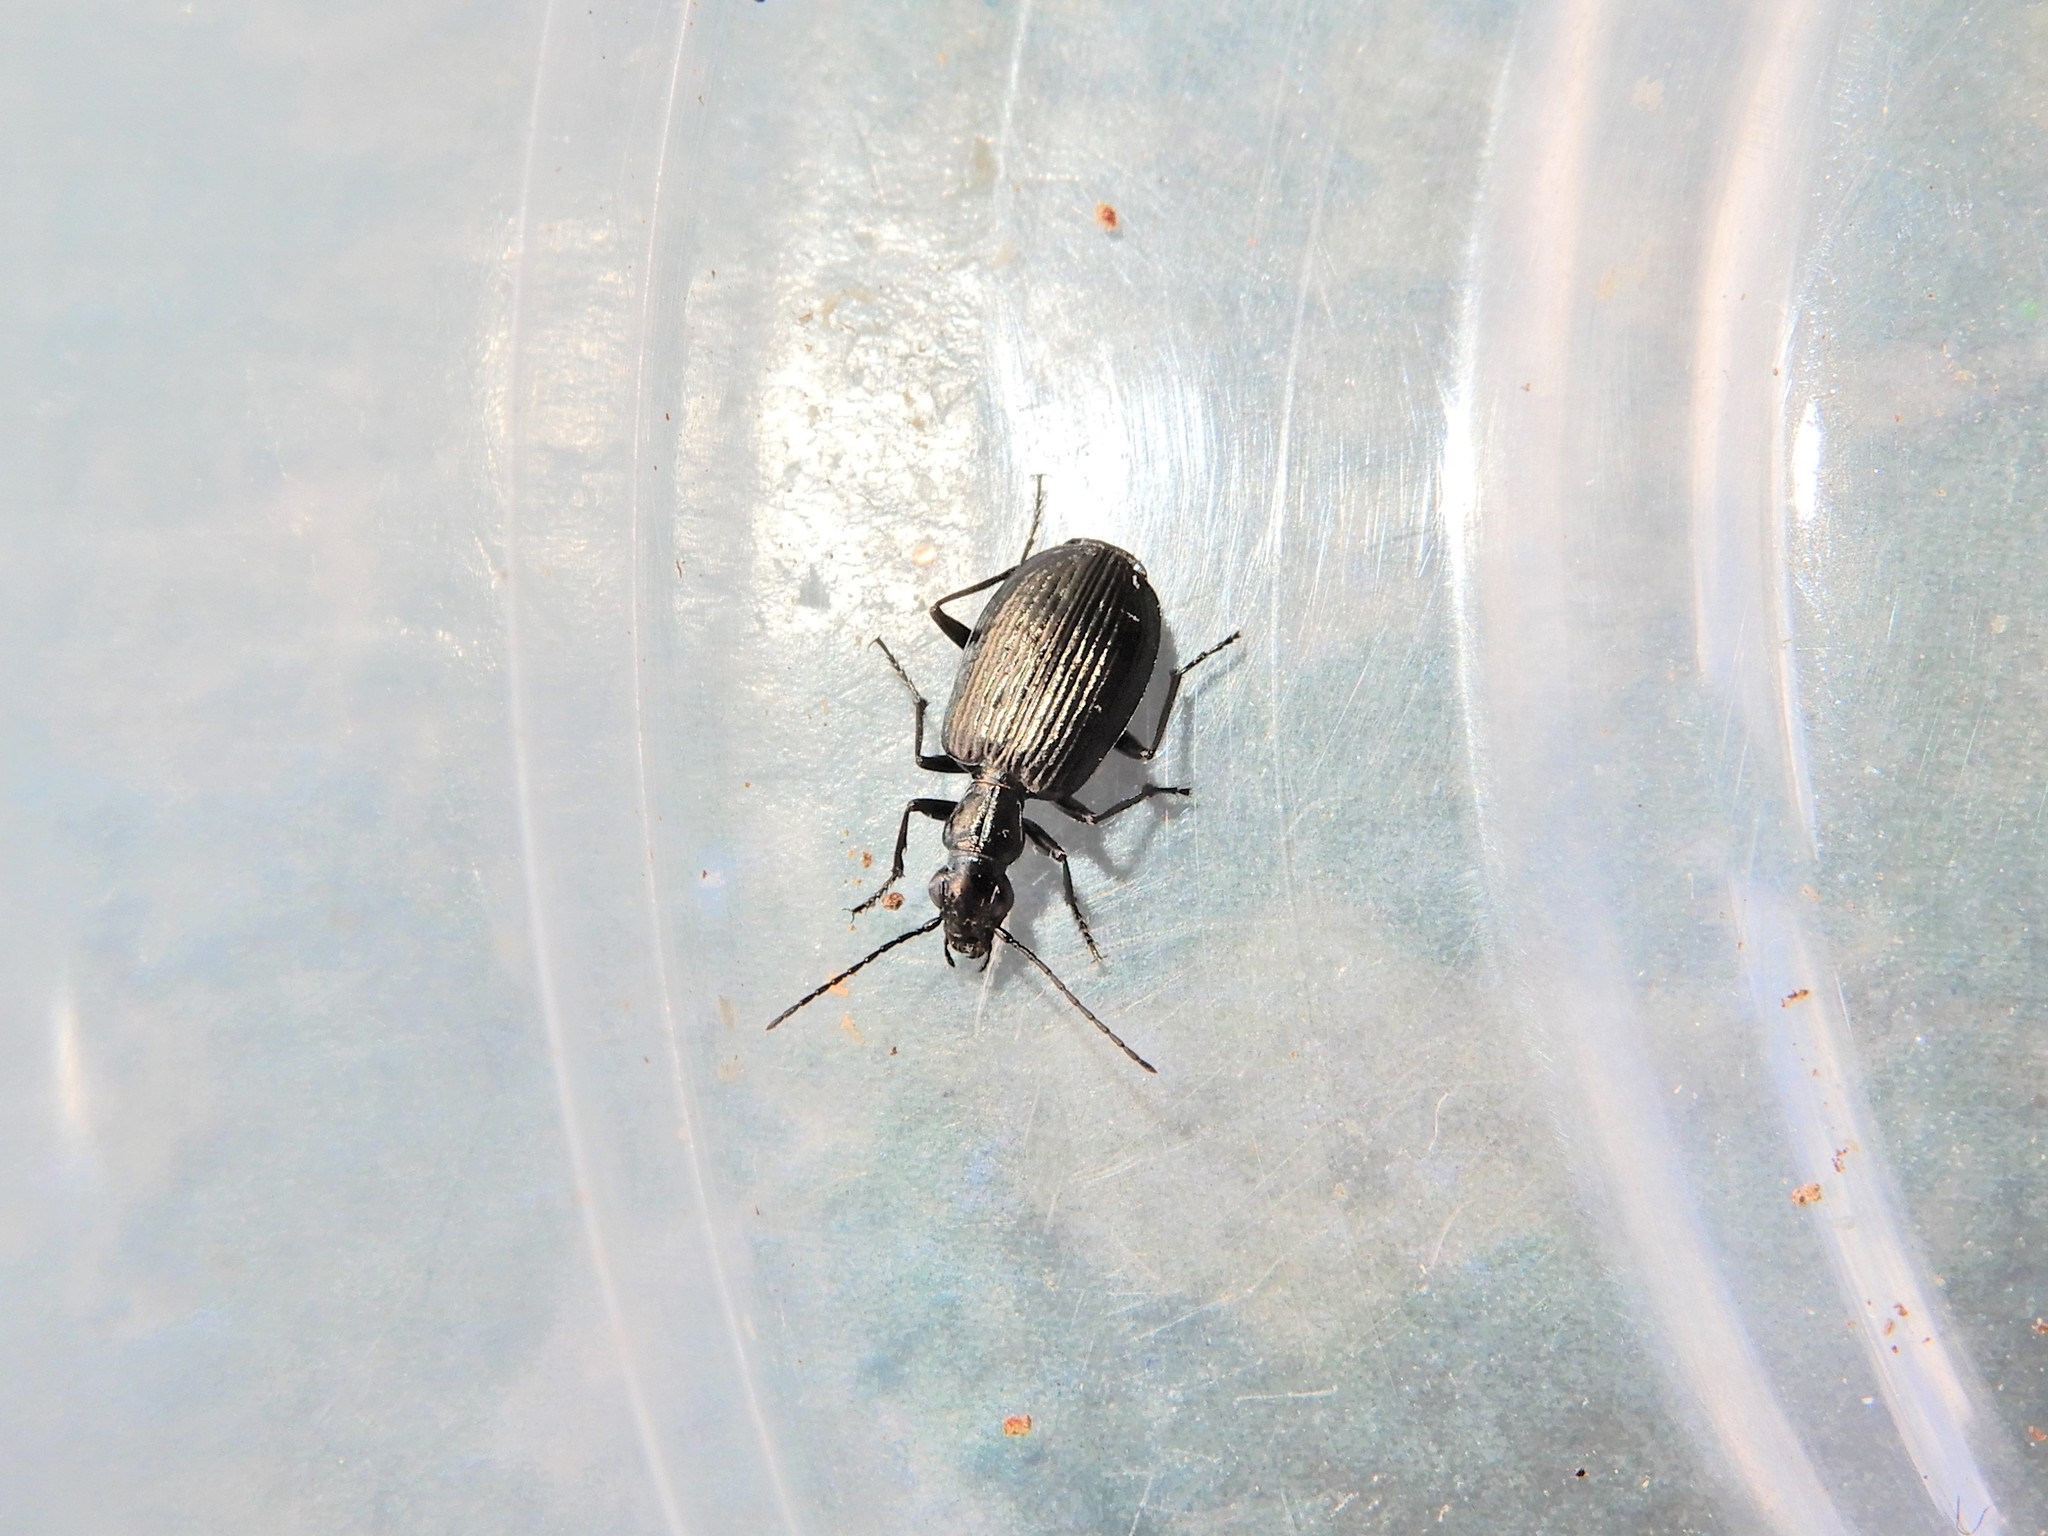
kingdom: Animalia
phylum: Arthropoda
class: Insecta
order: Coleoptera
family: Carabidae
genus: Actenonyx
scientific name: Actenonyx bembidioides
